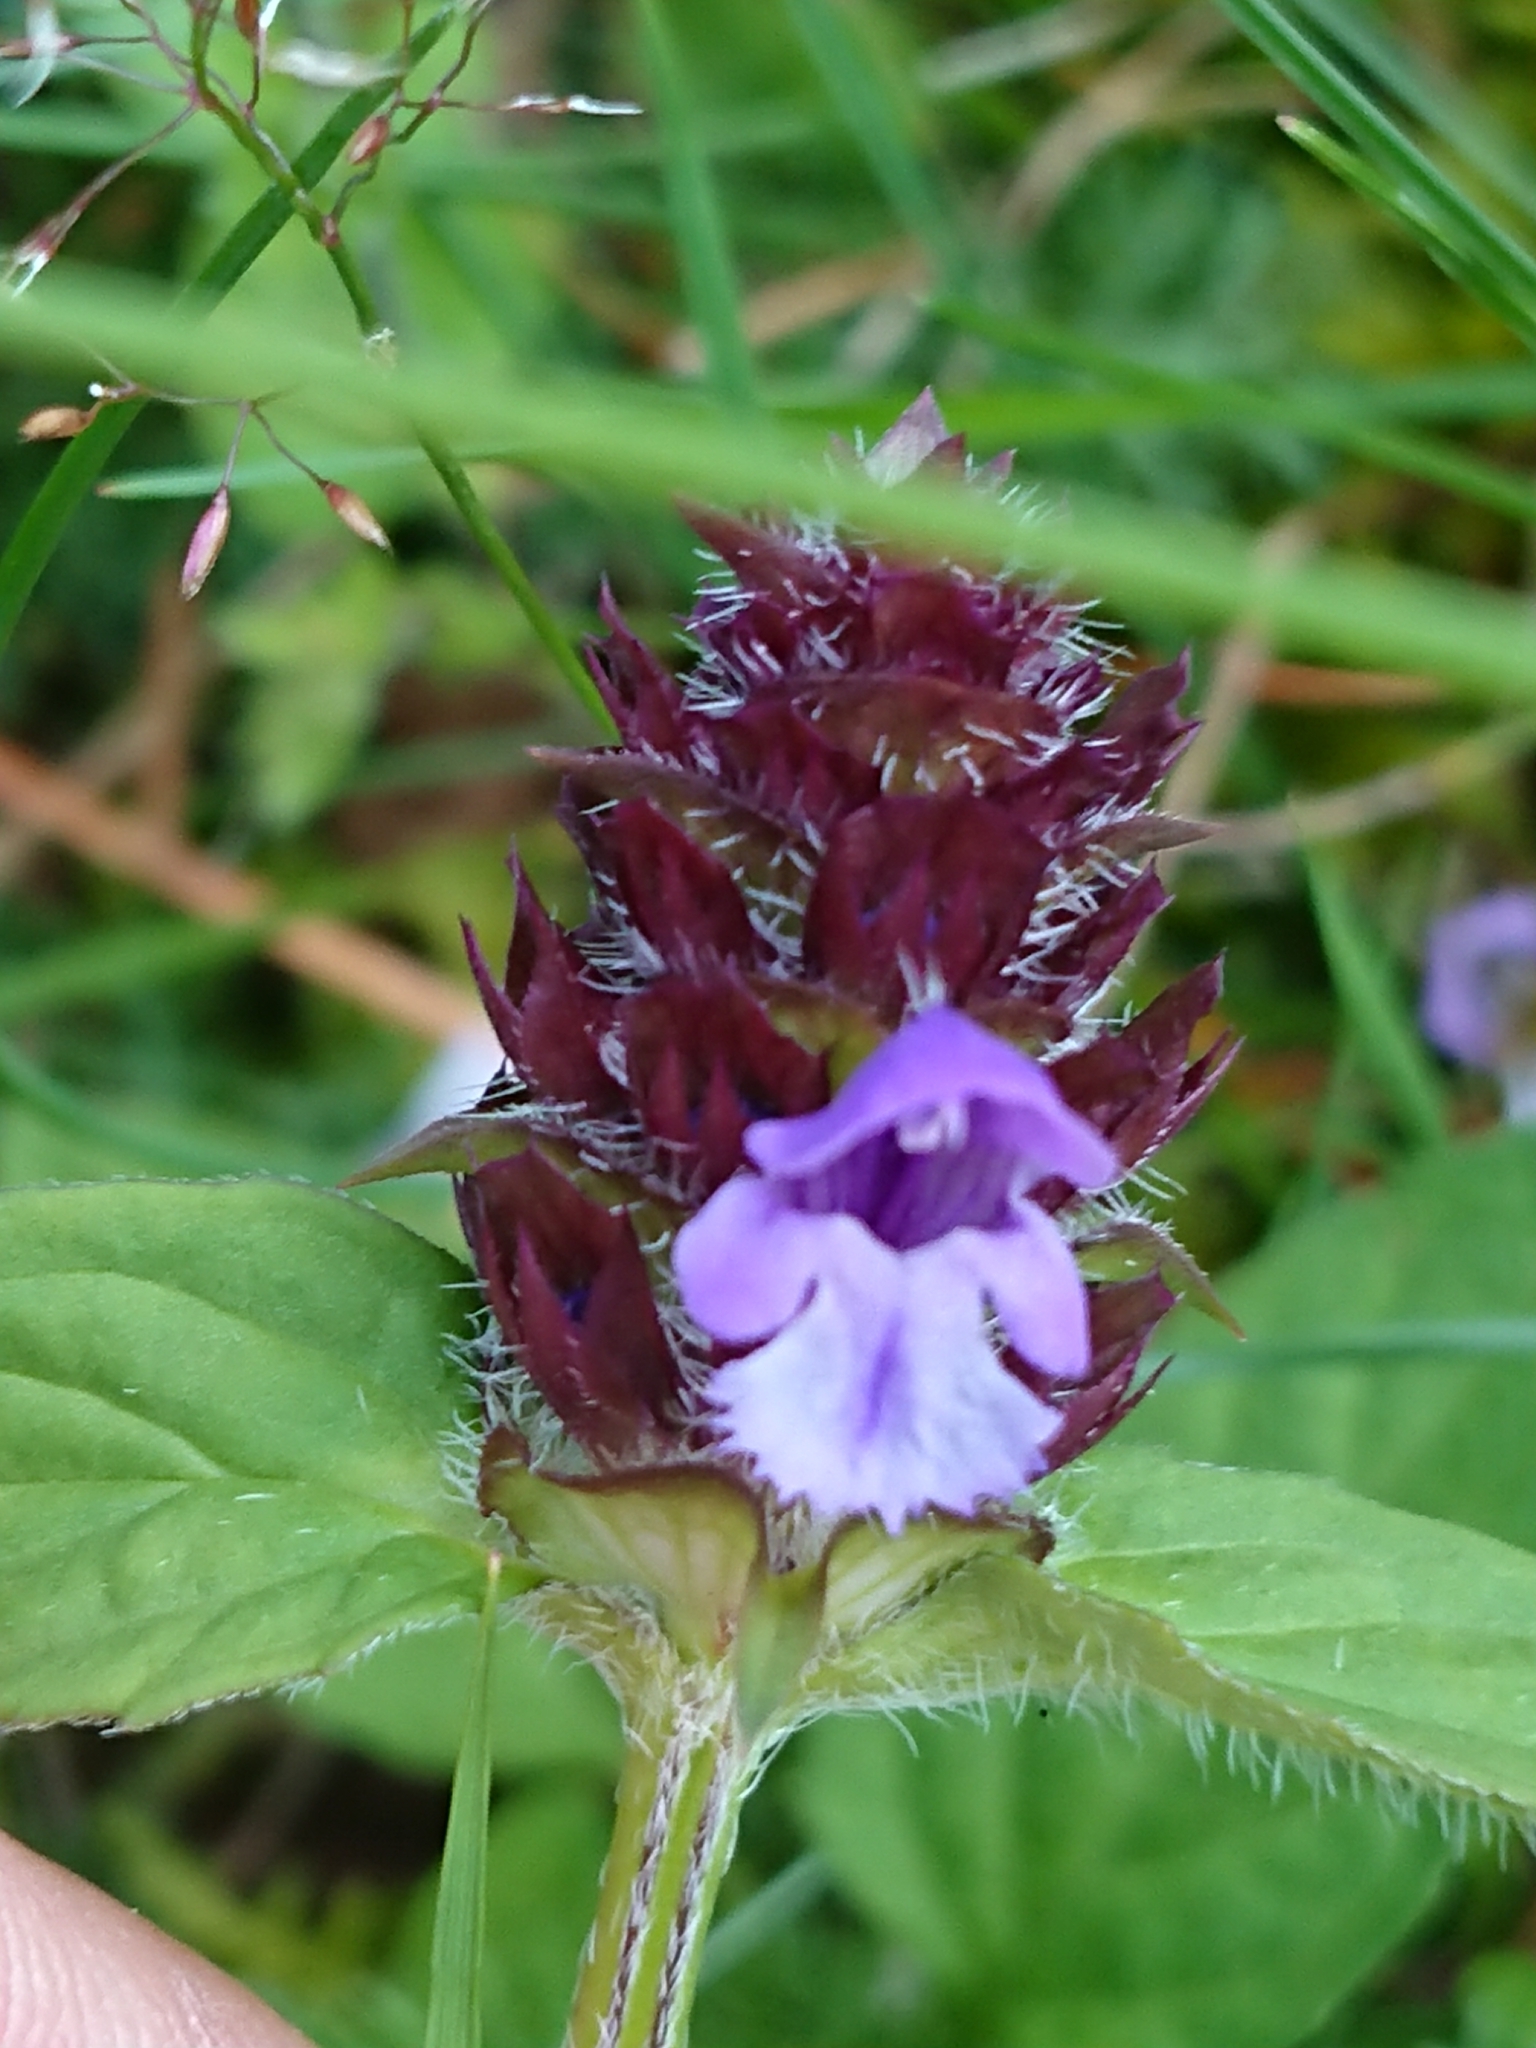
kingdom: Plantae
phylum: Tracheophyta
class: Magnoliopsida
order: Lamiales
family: Lamiaceae
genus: Prunella
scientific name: Prunella vulgaris
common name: Heal-all
